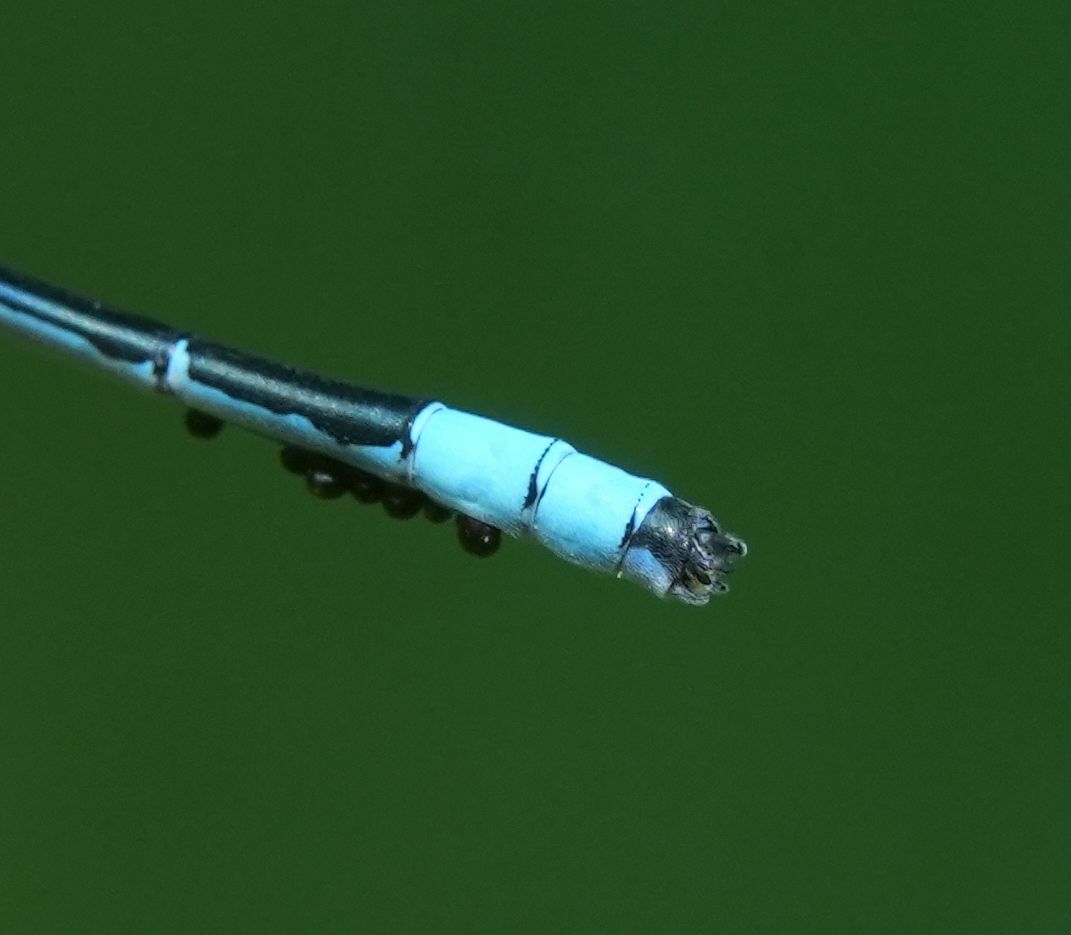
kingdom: Animalia
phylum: Arthropoda
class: Insecta
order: Odonata
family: Coenagrionidae
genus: Enallagma
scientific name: Enallagma ebrium
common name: Marsh bluet
